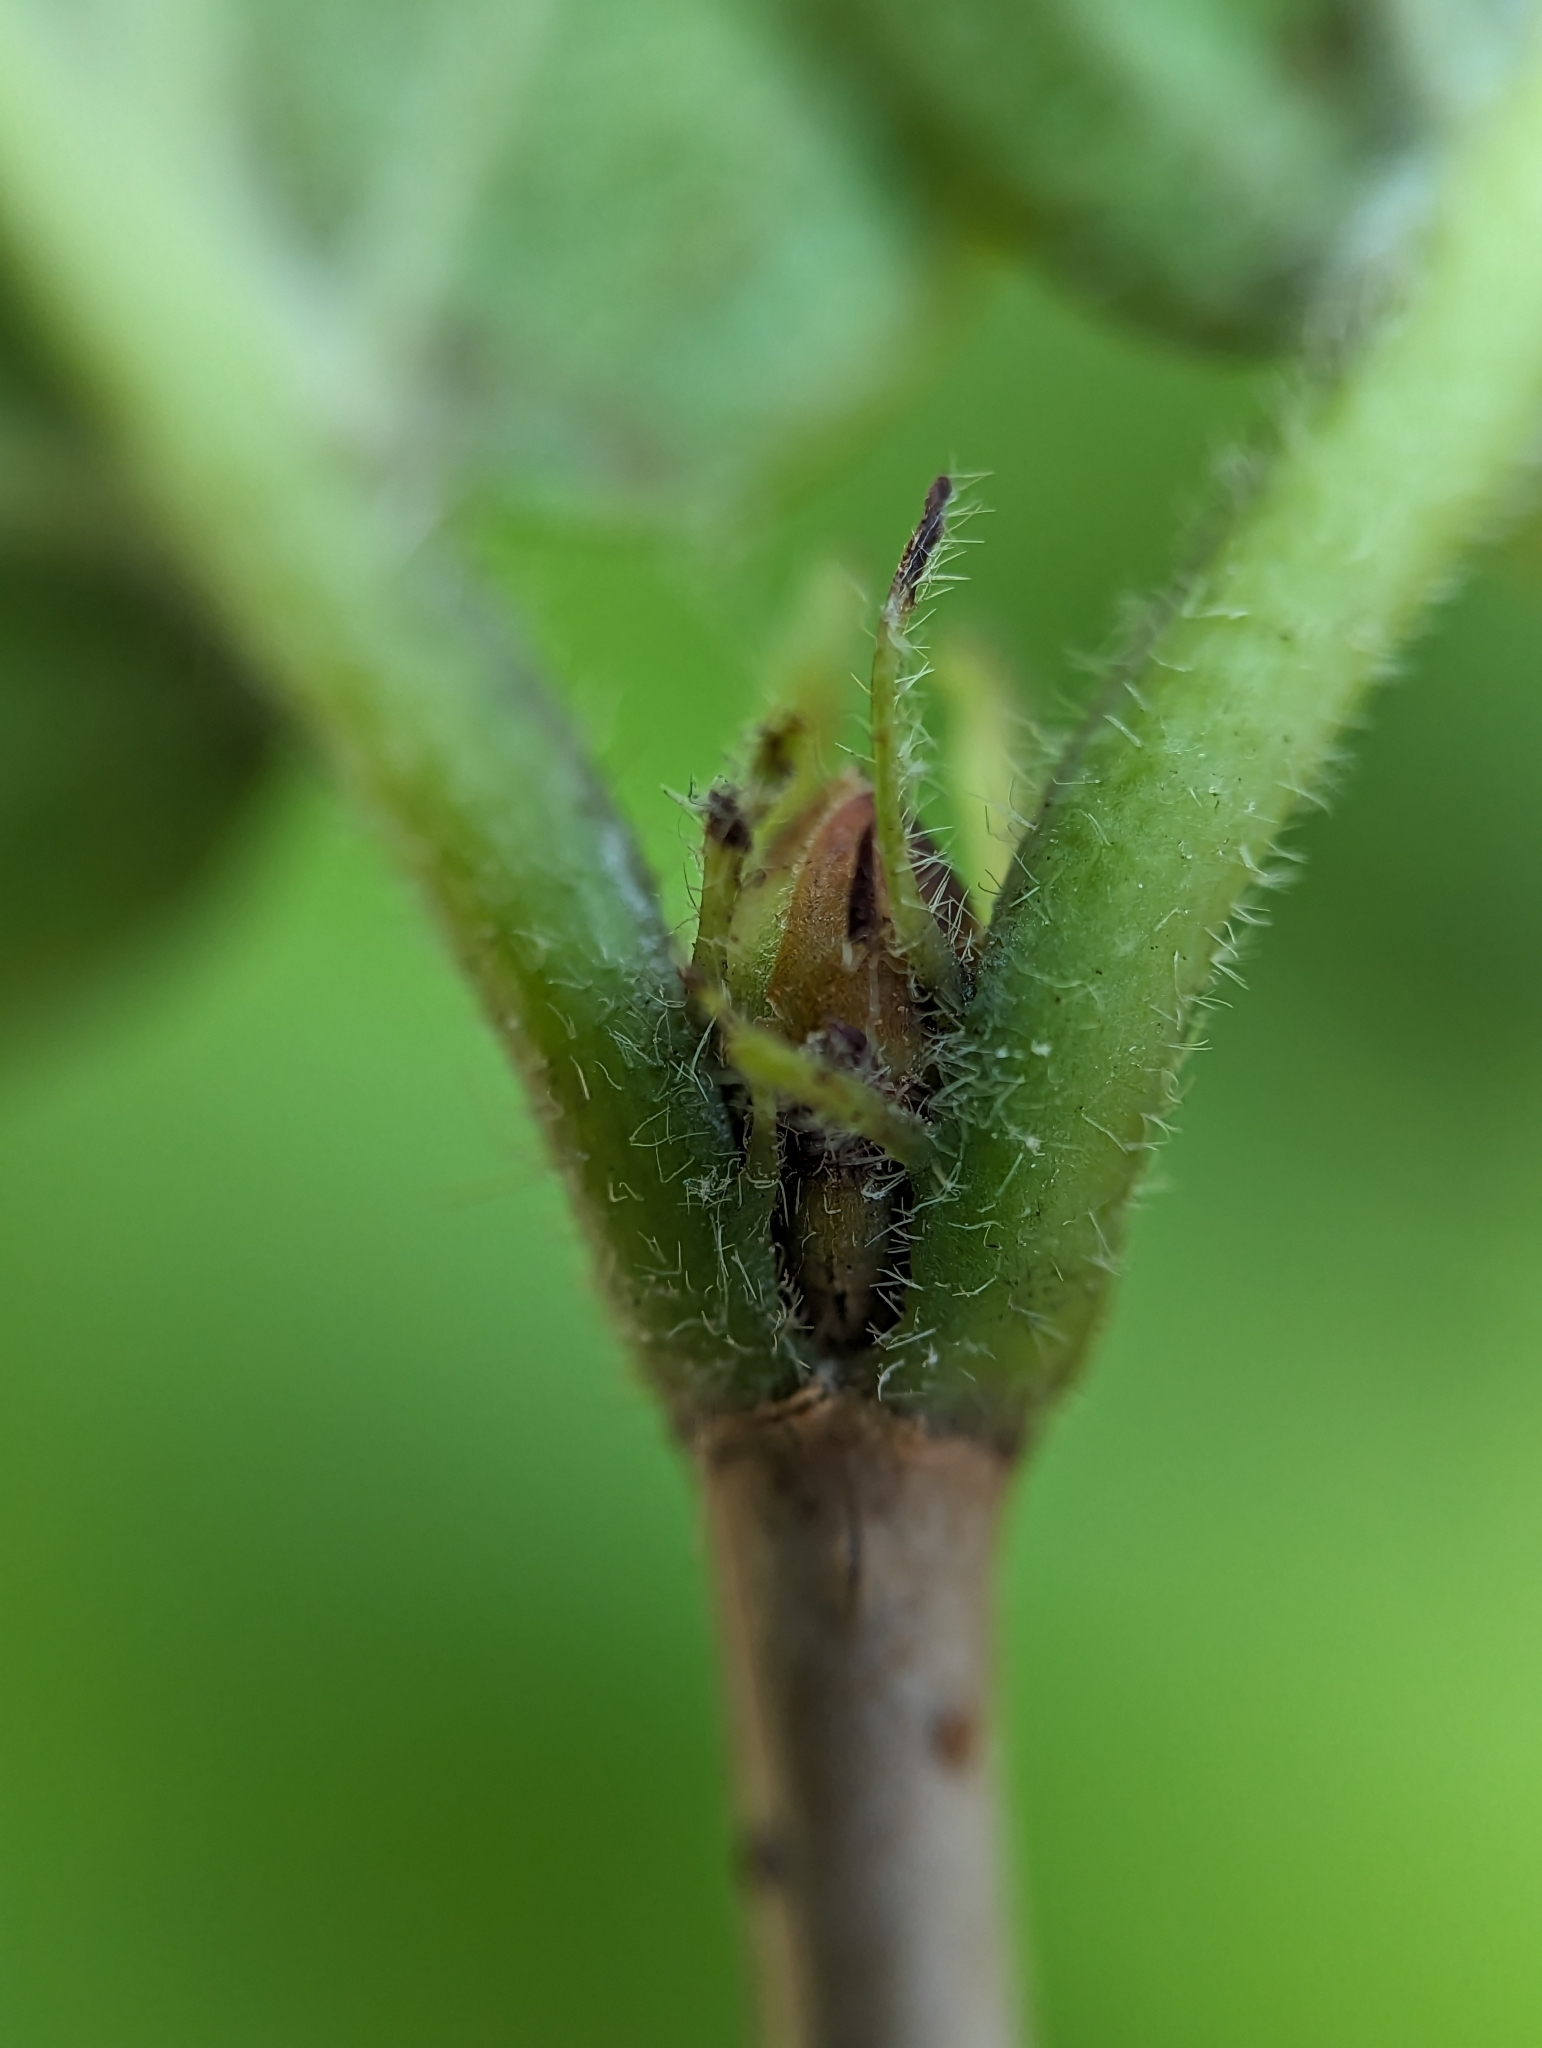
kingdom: Plantae
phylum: Tracheophyta
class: Magnoliopsida
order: Dipsacales
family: Viburnaceae
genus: Viburnum
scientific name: Viburnum rafinesqueanum
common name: Downy arrow-wood
